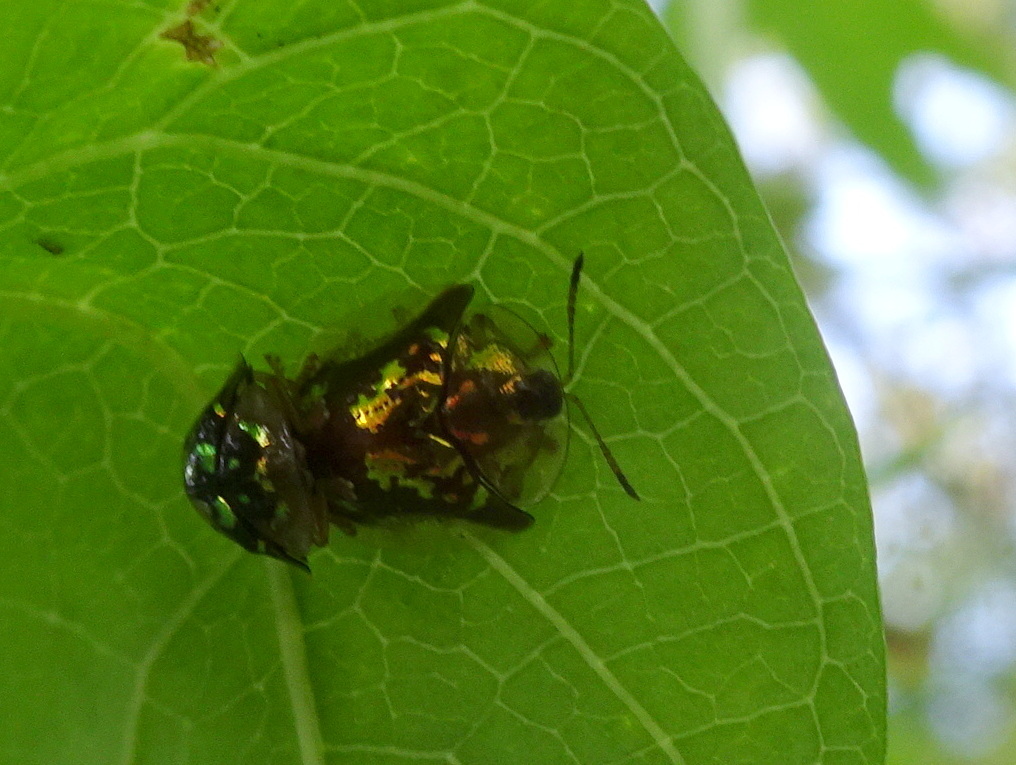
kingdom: Animalia
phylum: Arthropoda
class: Insecta
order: Coleoptera
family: Chrysomelidae
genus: Deloyala
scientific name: Deloyala guttata
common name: Mottled tortoise beetle
